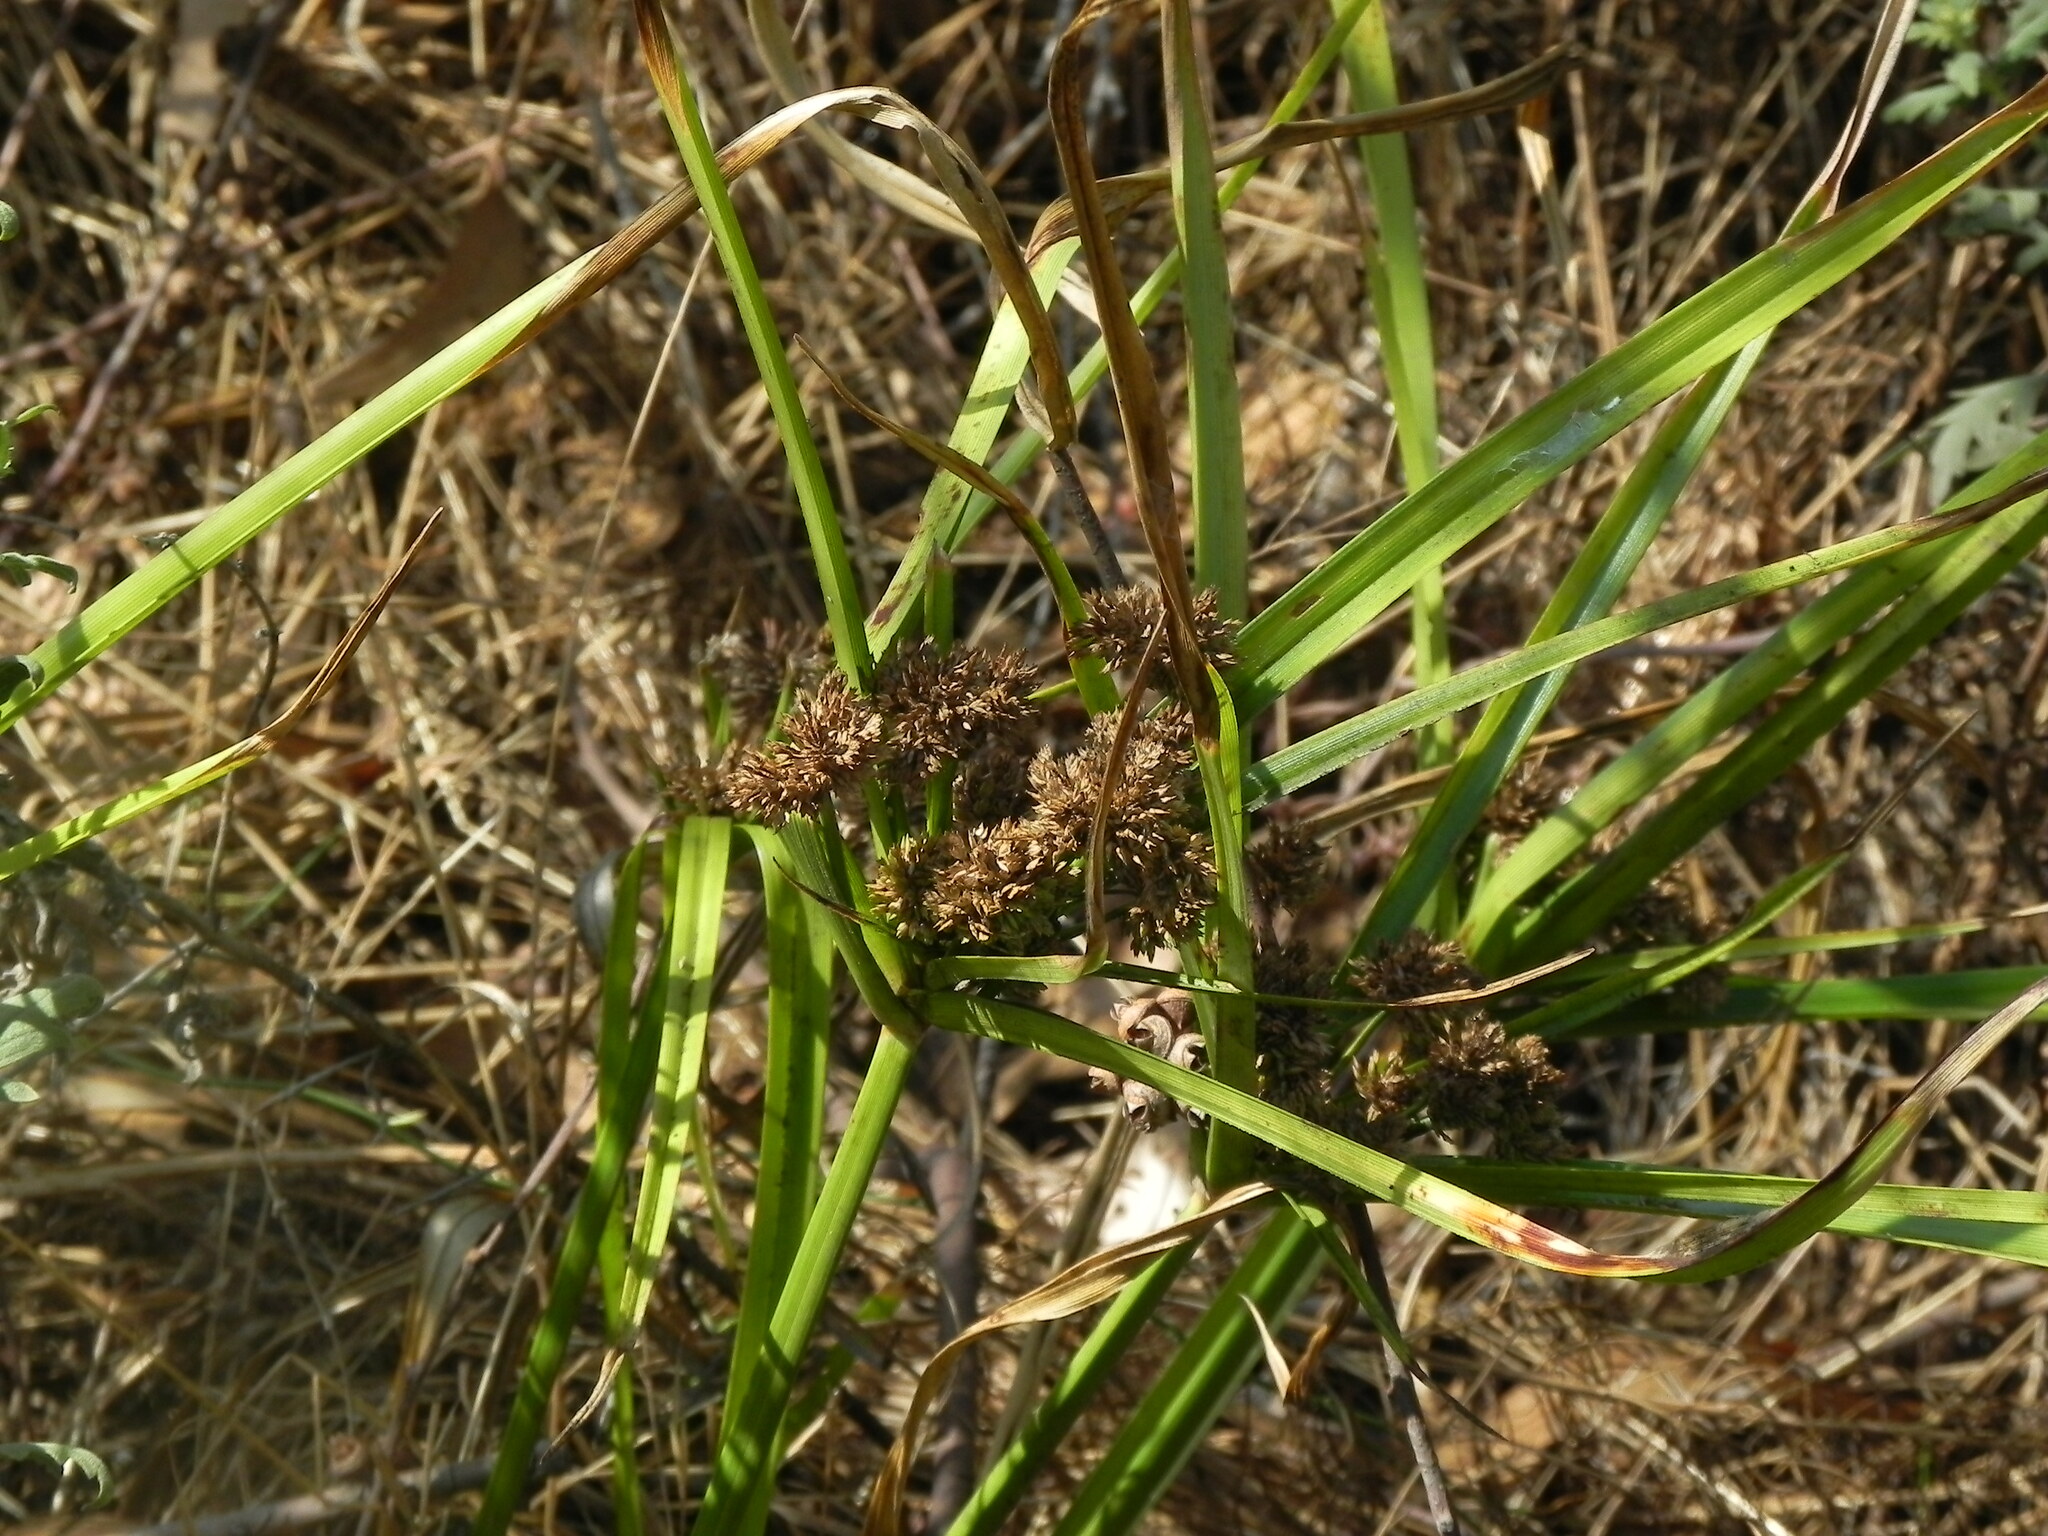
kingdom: Plantae
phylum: Tracheophyta
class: Liliopsida
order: Poales
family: Cyperaceae
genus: Cyperus
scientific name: Cyperus eragrostis
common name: Tall flatsedge
